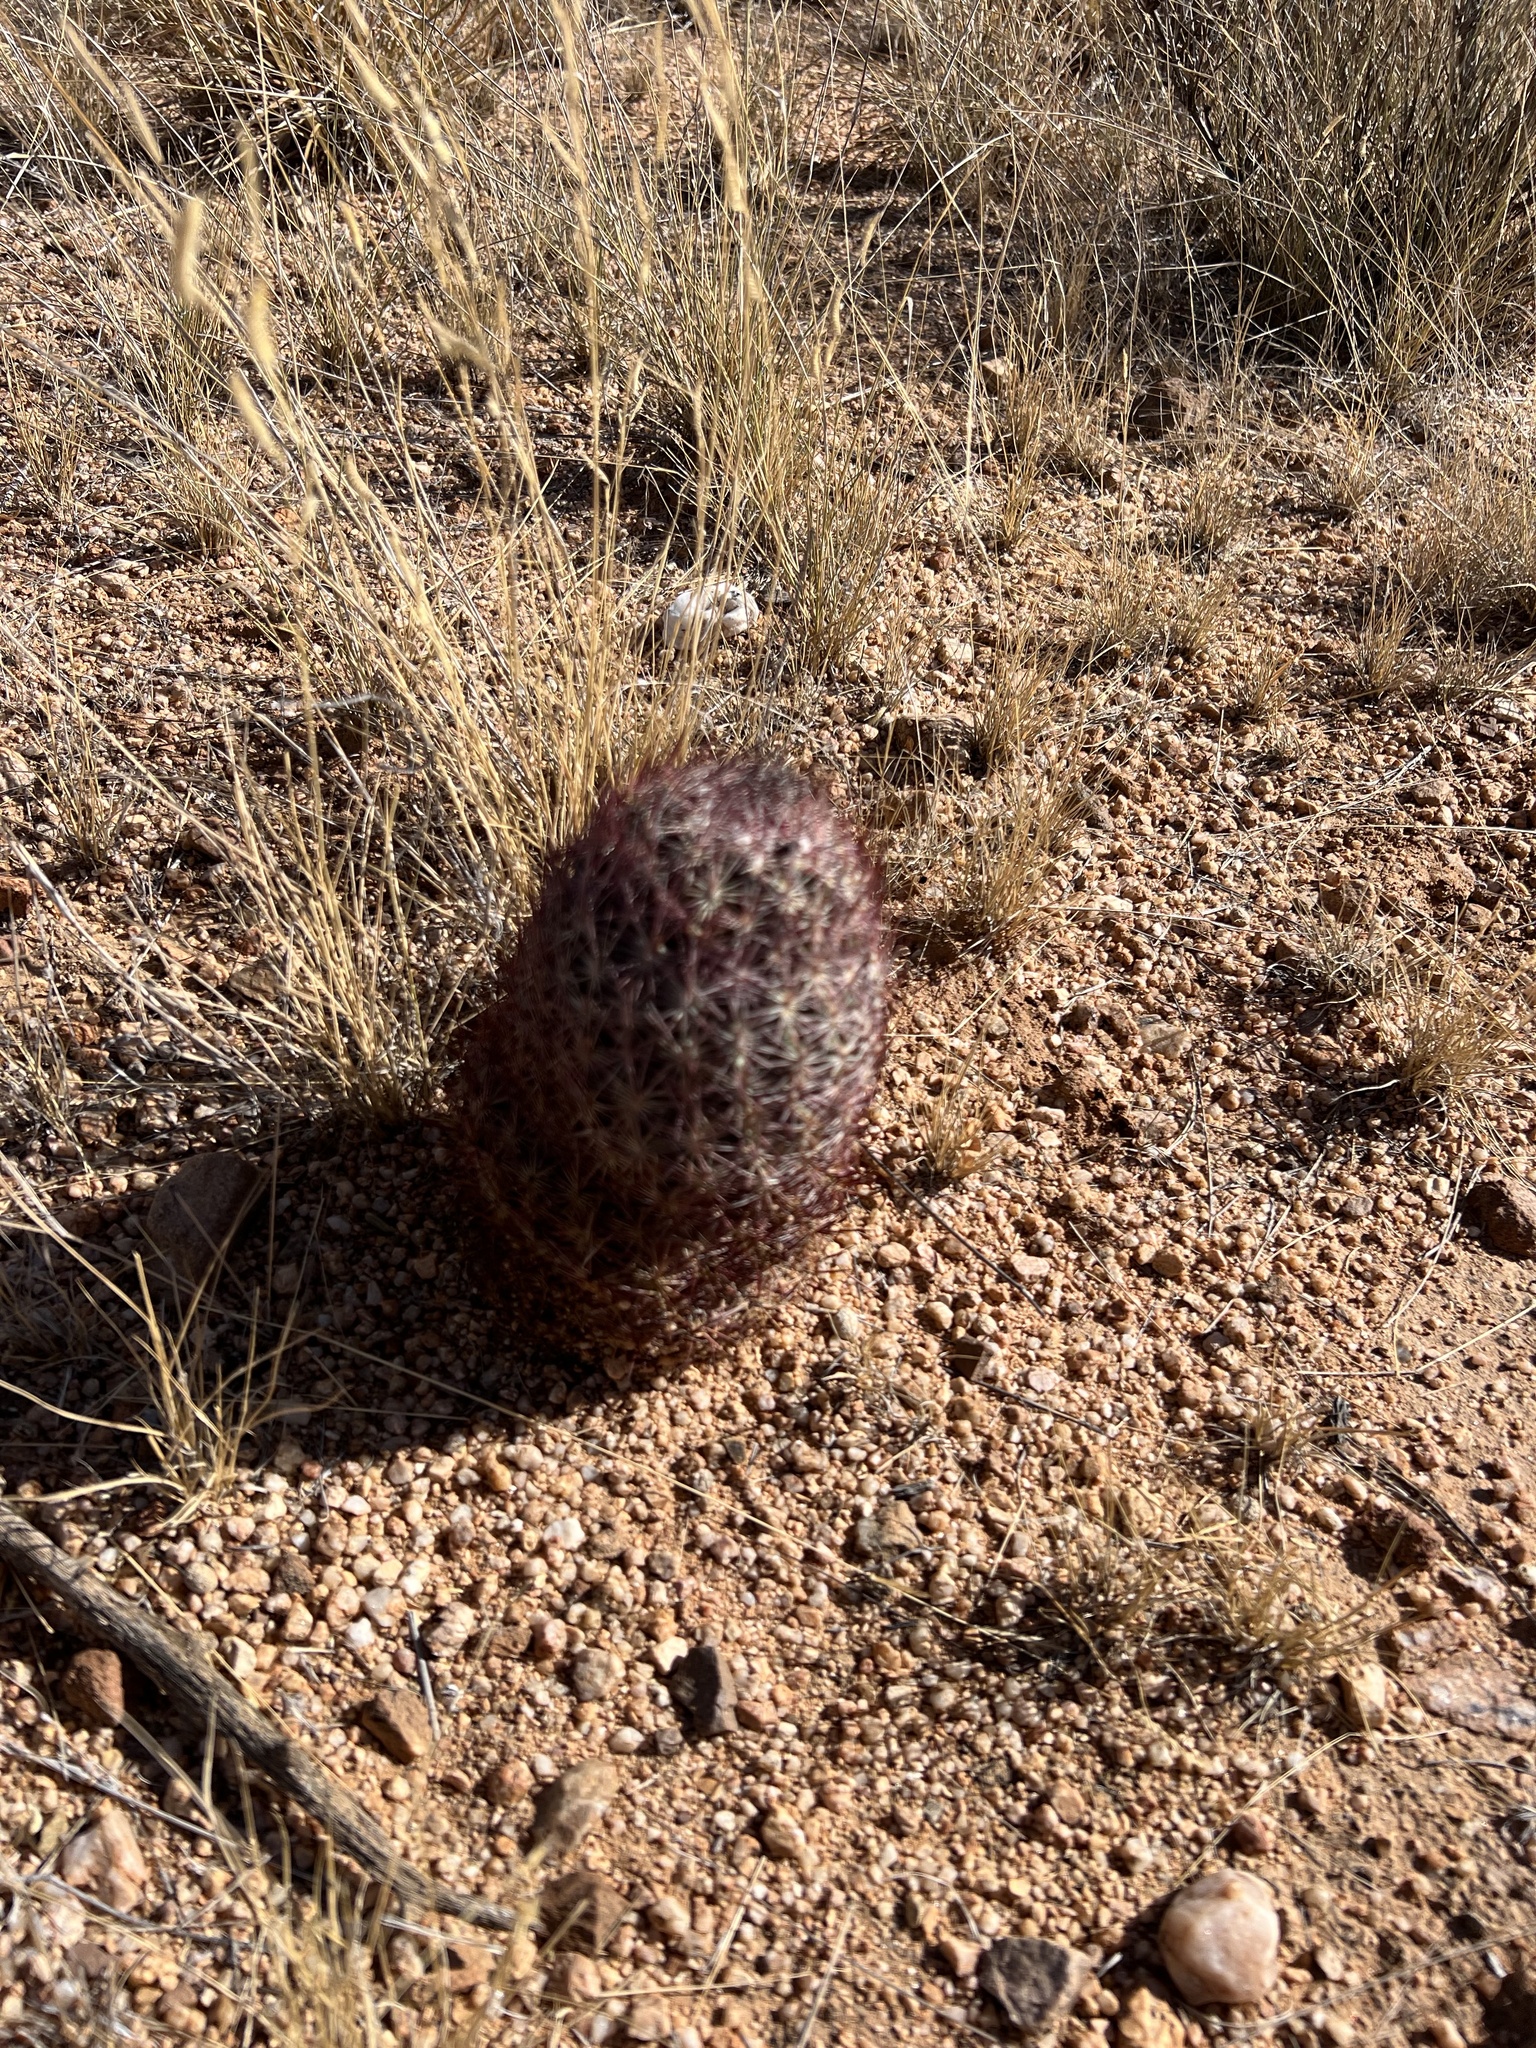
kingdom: Plantae
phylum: Tracheophyta
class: Magnoliopsida
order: Caryophyllales
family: Cactaceae
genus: Sclerocactus
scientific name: Sclerocactus johnsonii
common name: Eight-spine fishhook cactus
